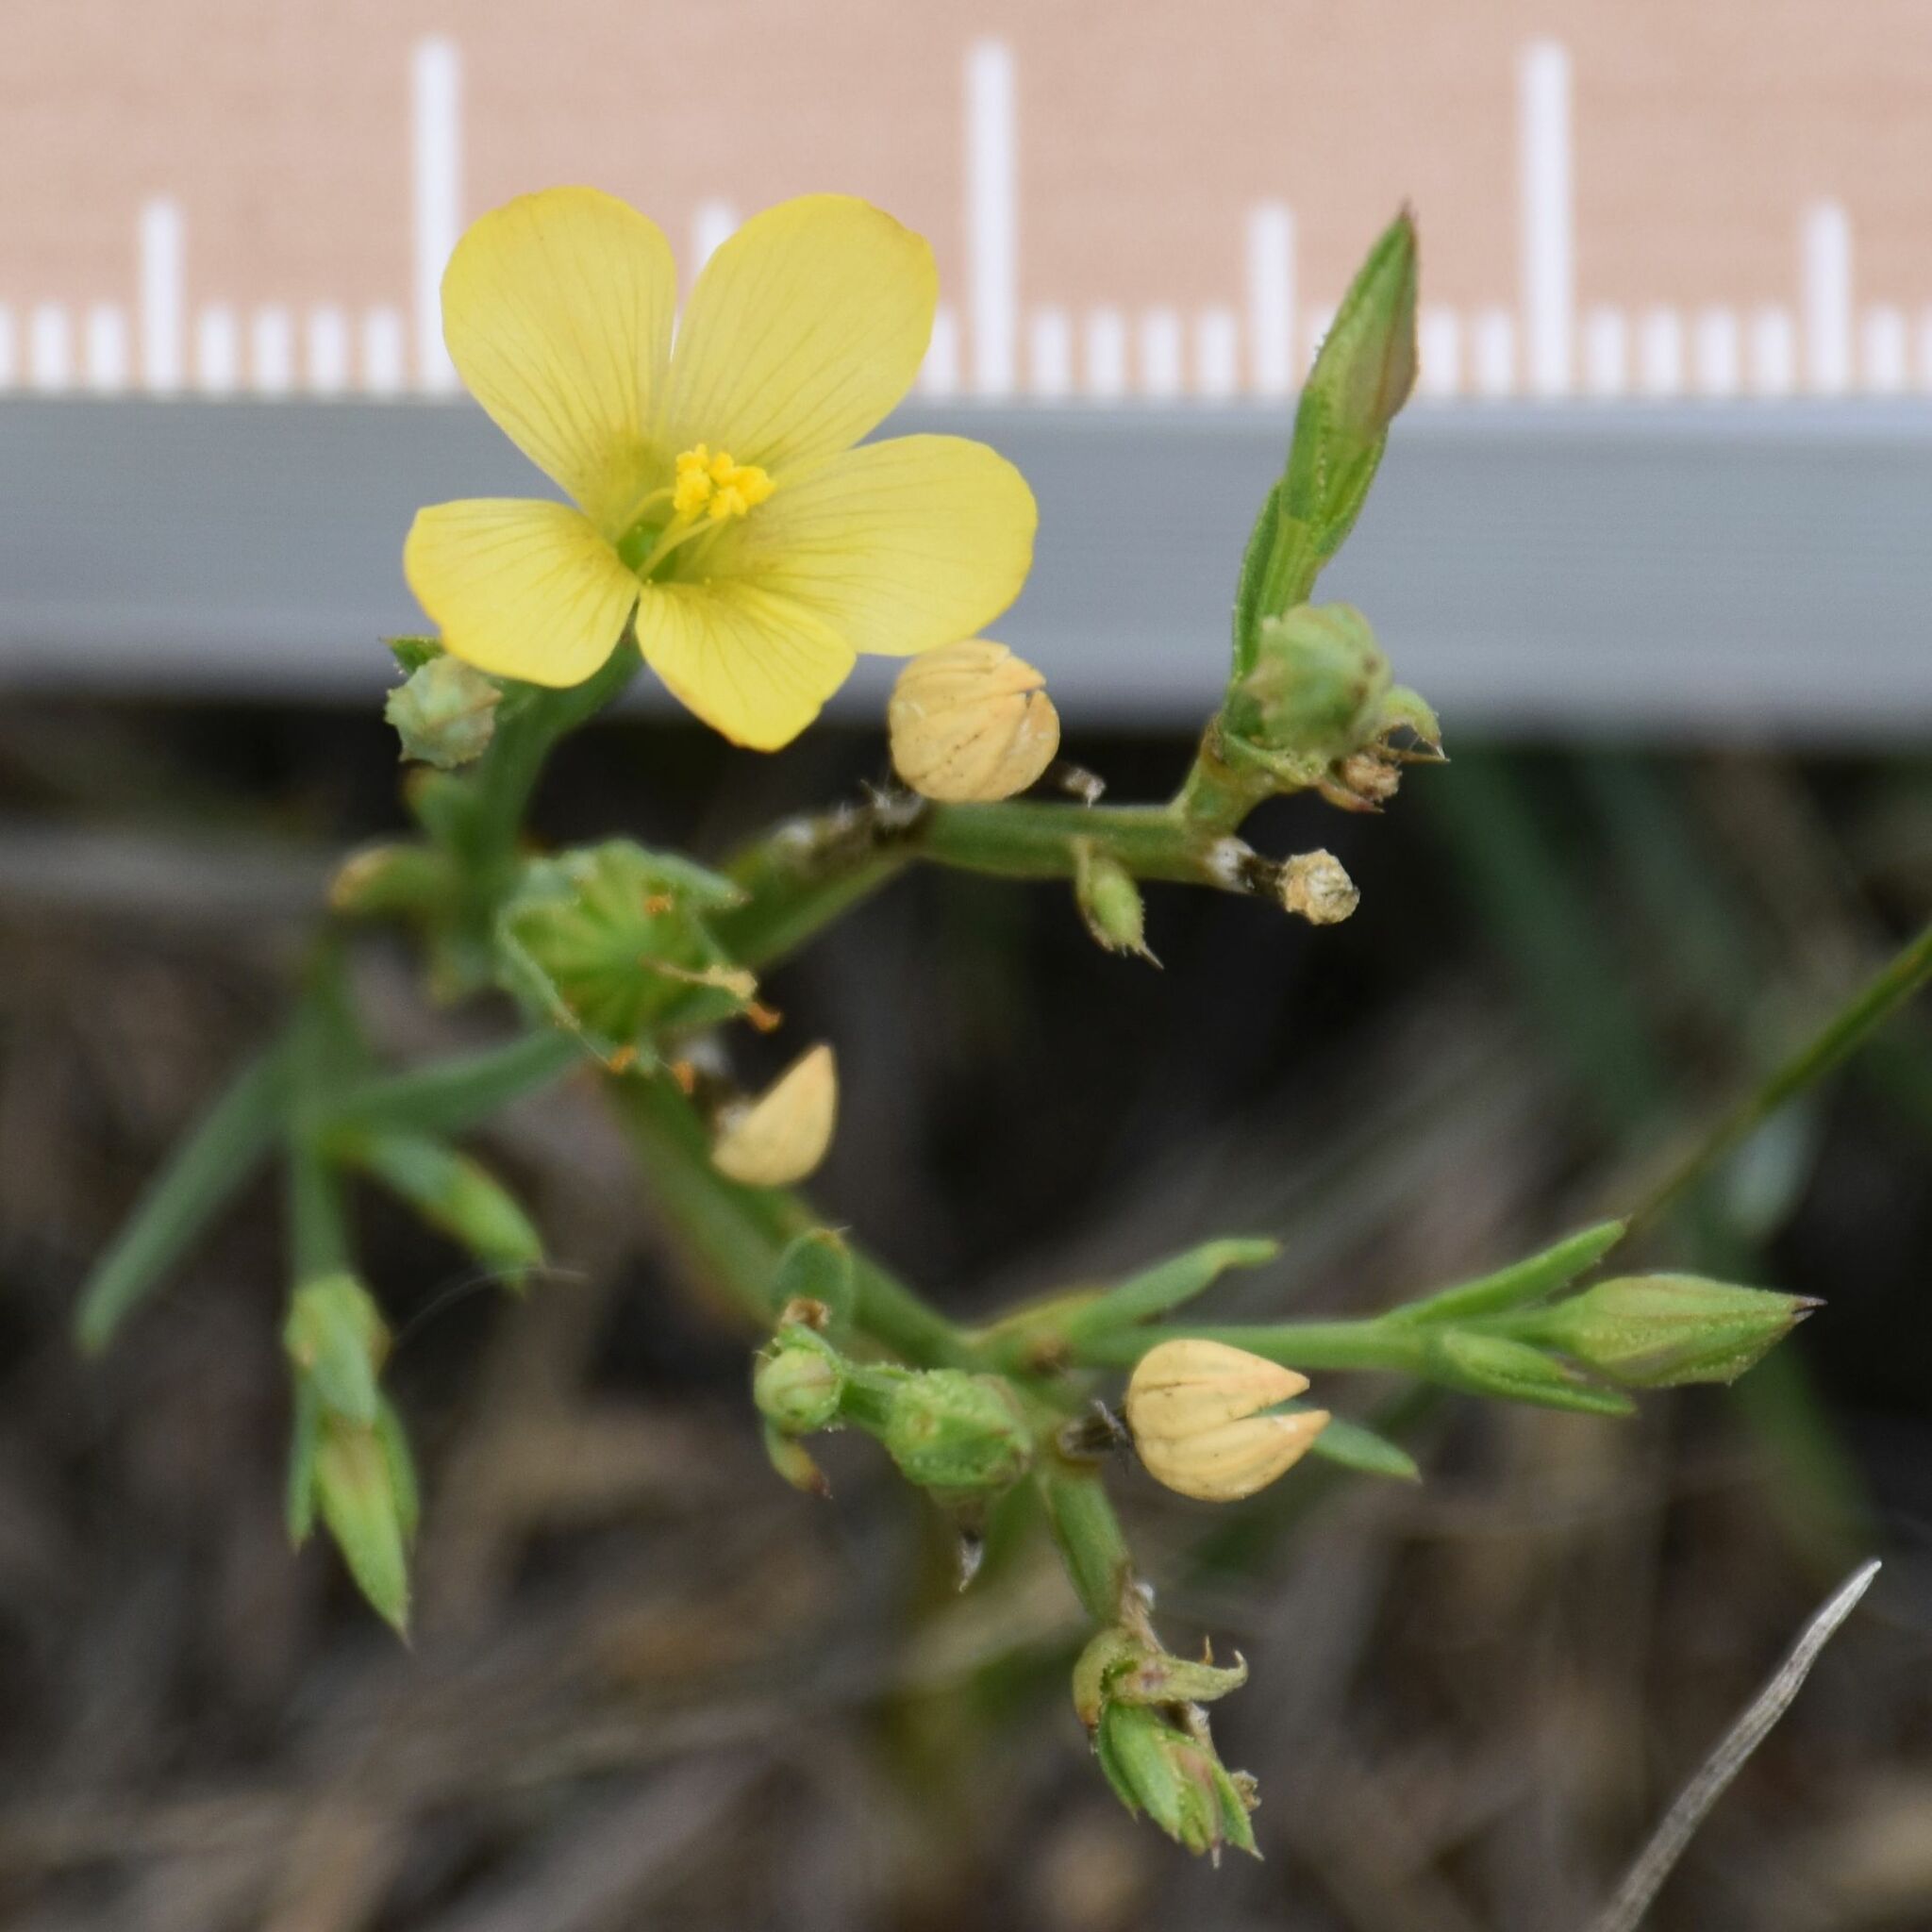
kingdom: Plantae
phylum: Tracheophyta
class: Magnoliopsida
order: Malpighiales
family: Linaceae
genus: Linum
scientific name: Linum compactum
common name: Wyoming flax
